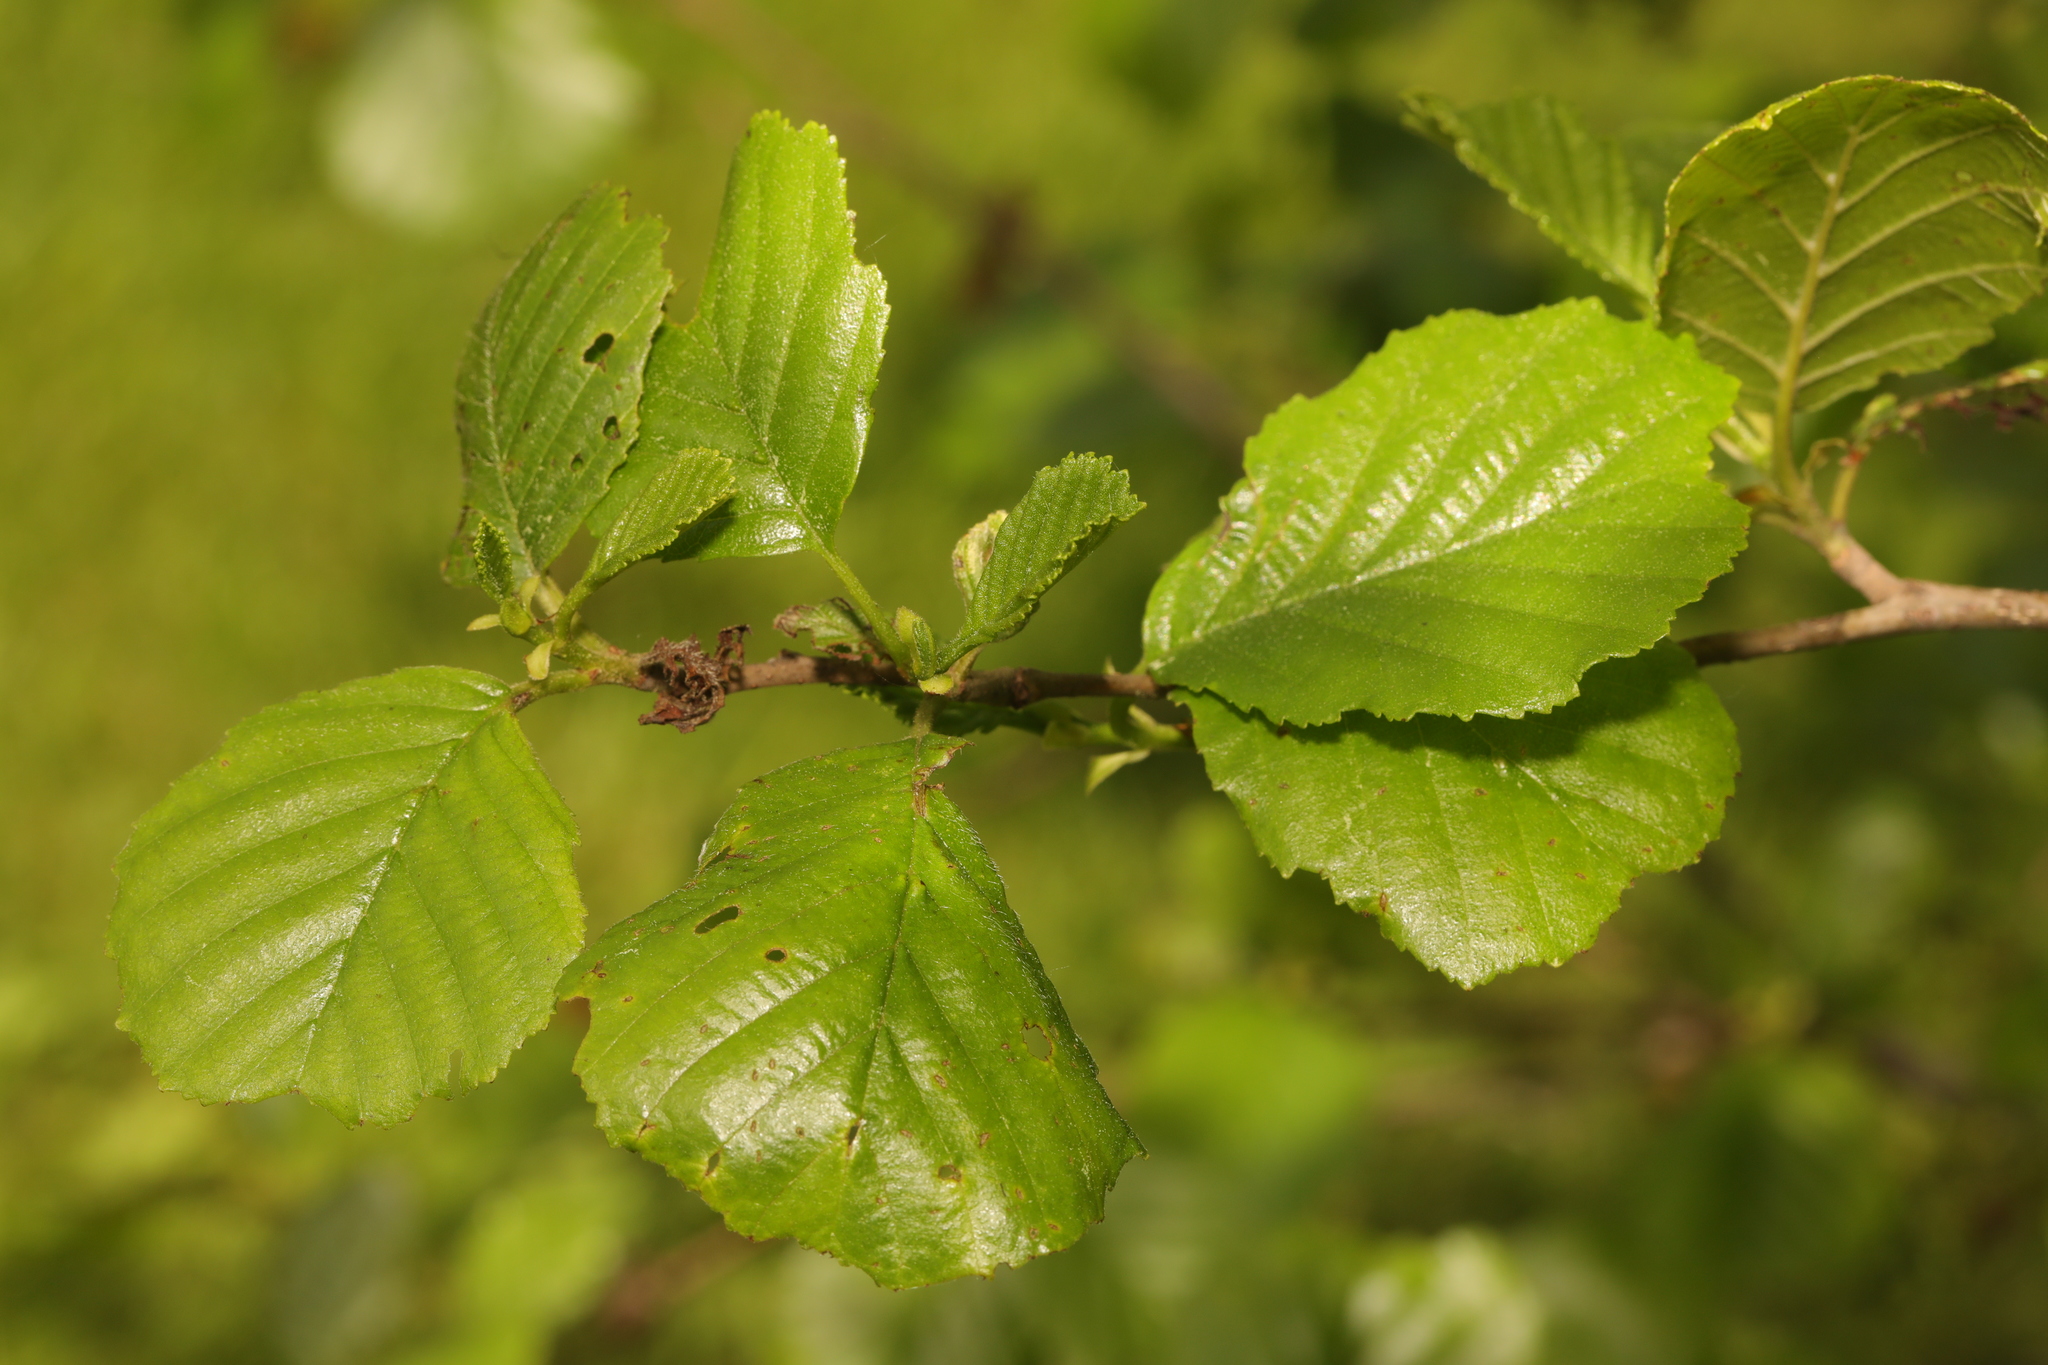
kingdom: Plantae
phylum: Tracheophyta
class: Magnoliopsida
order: Fagales
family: Betulaceae
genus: Alnus
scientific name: Alnus glutinosa
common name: Black alder
